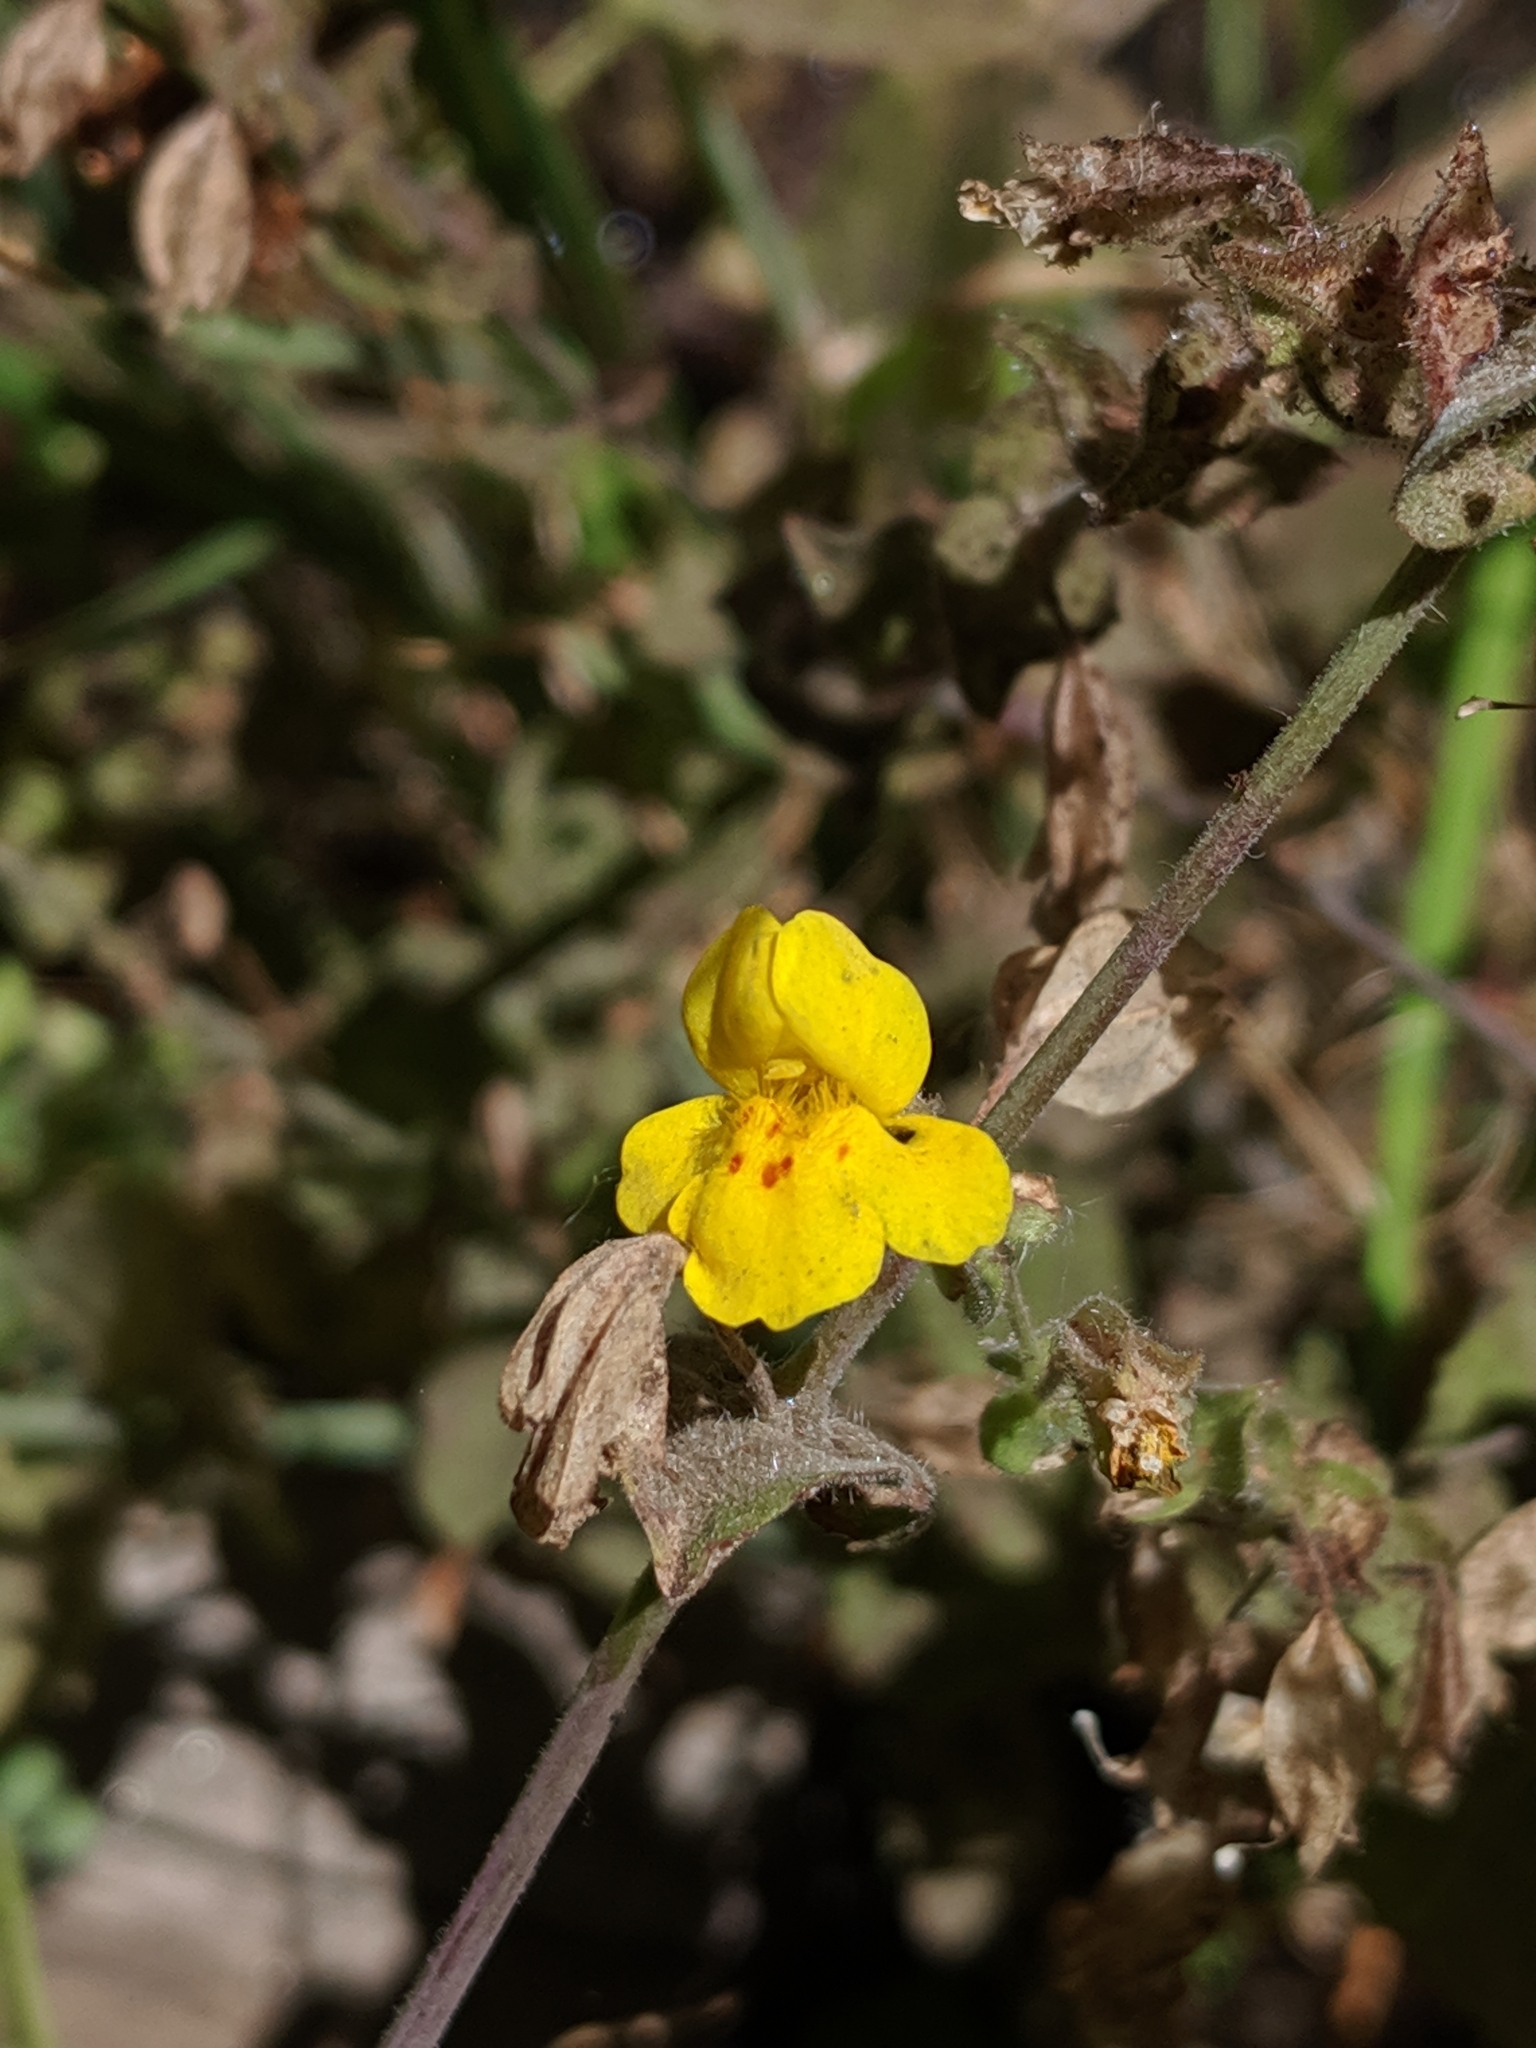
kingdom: Plantae
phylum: Tracheophyta
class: Magnoliopsida
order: Lamiales
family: Phrymaceae
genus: Erythranthe
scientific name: Erythranthe guttata
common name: Monkeyflower
